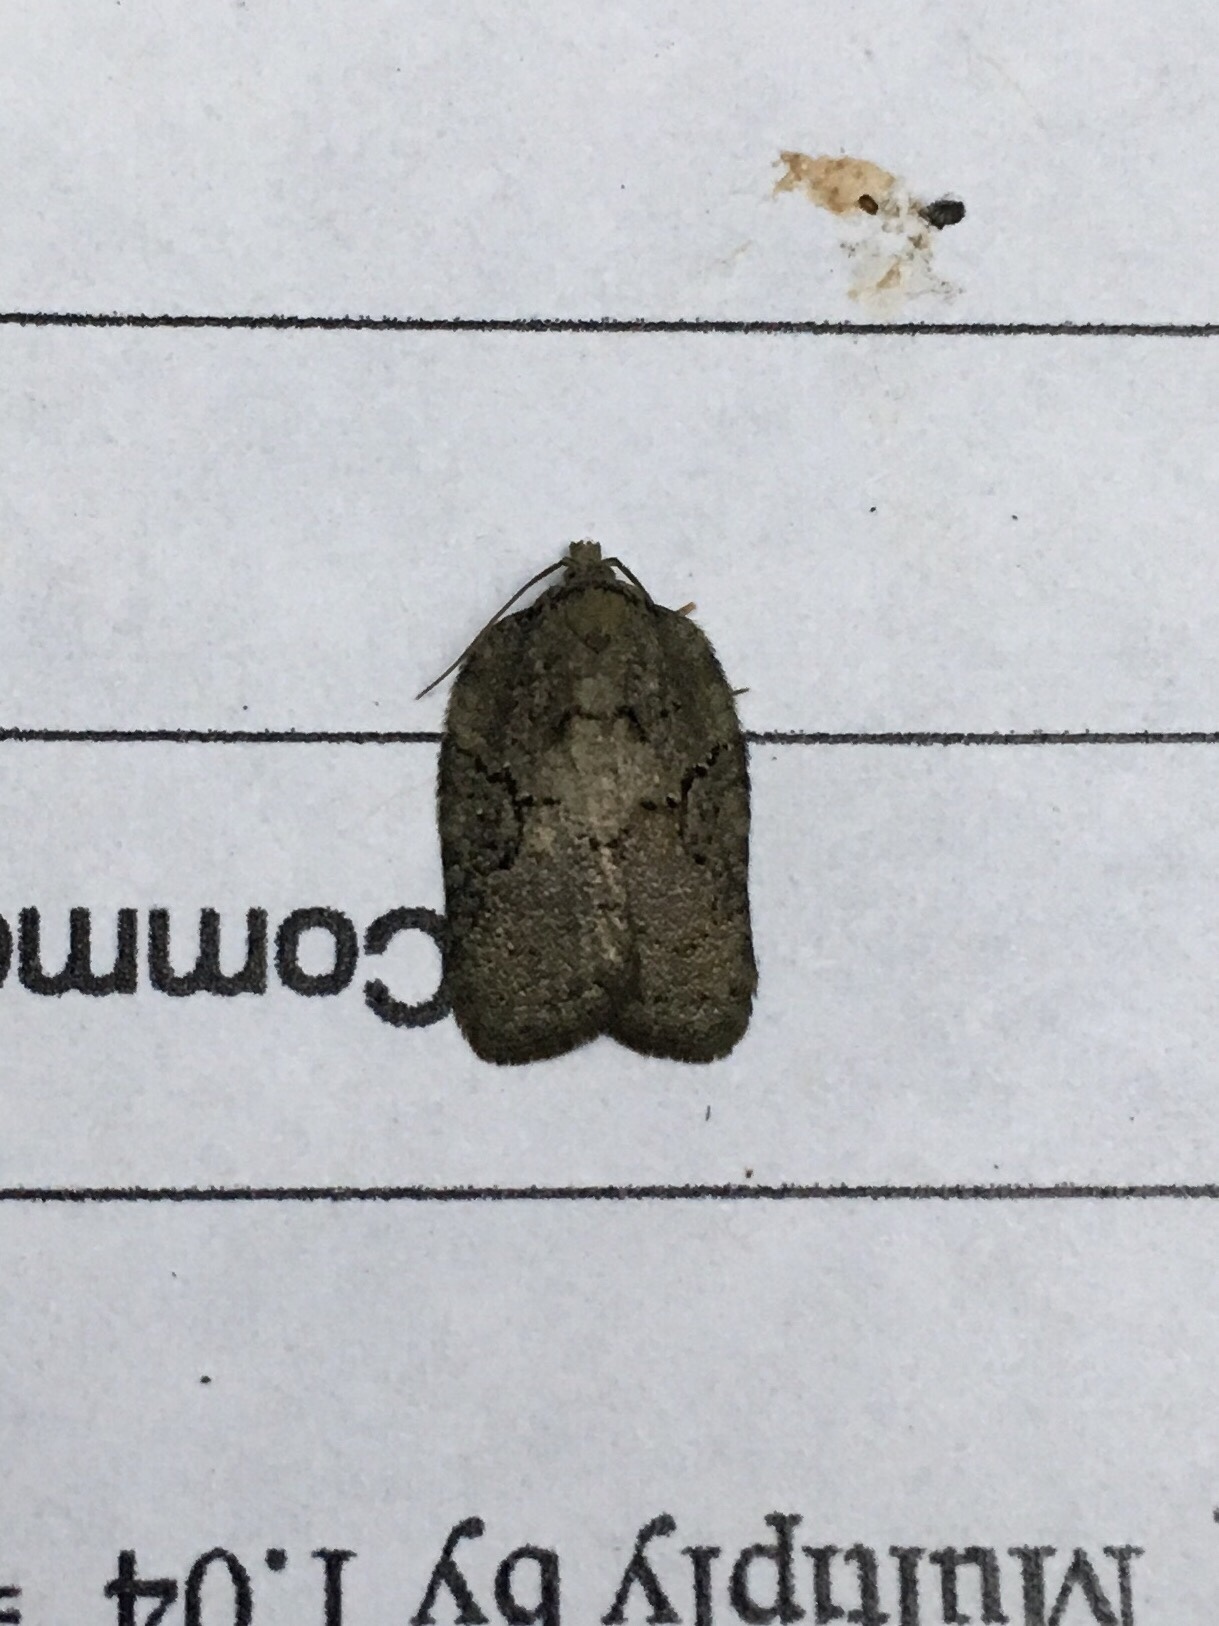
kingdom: Animalia
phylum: Arthropoda
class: Insecta
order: Lepidoptera
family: Tortricidae
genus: Acleris
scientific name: Acleris chalybeana
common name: Lesser maple leafroller
